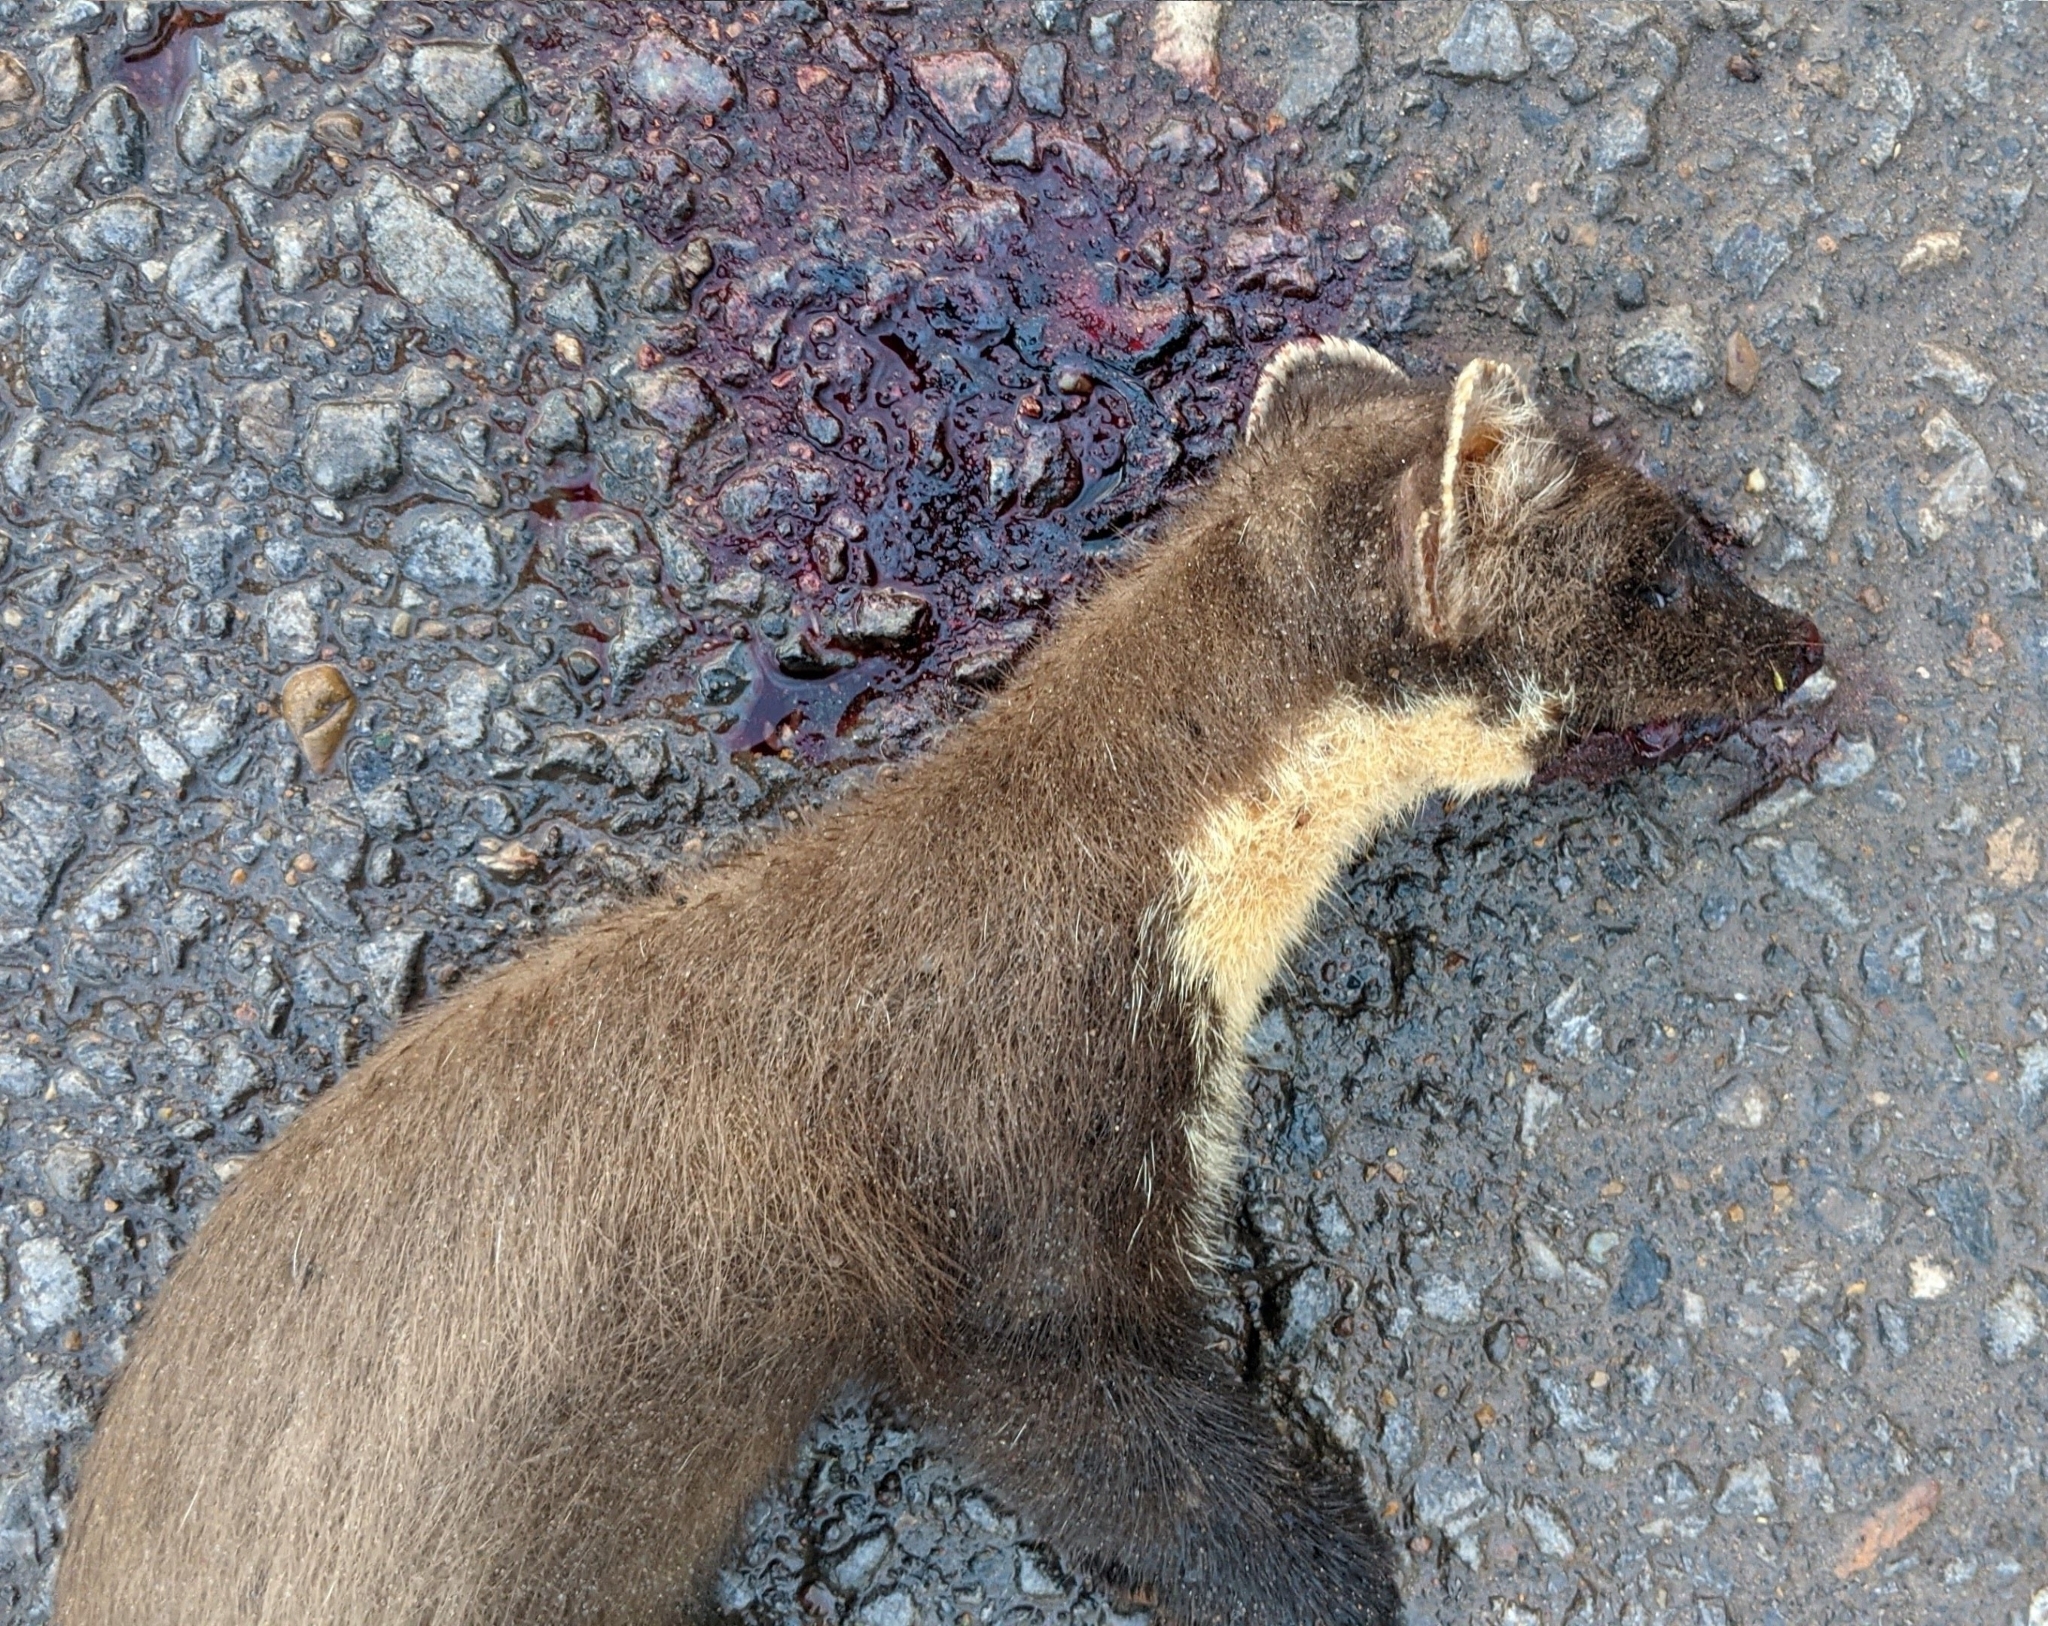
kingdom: Animalia
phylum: Chordata
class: Mammalia
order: Carnivora
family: Mustelidae
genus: Martes
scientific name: Martes martes
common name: European pine marten
